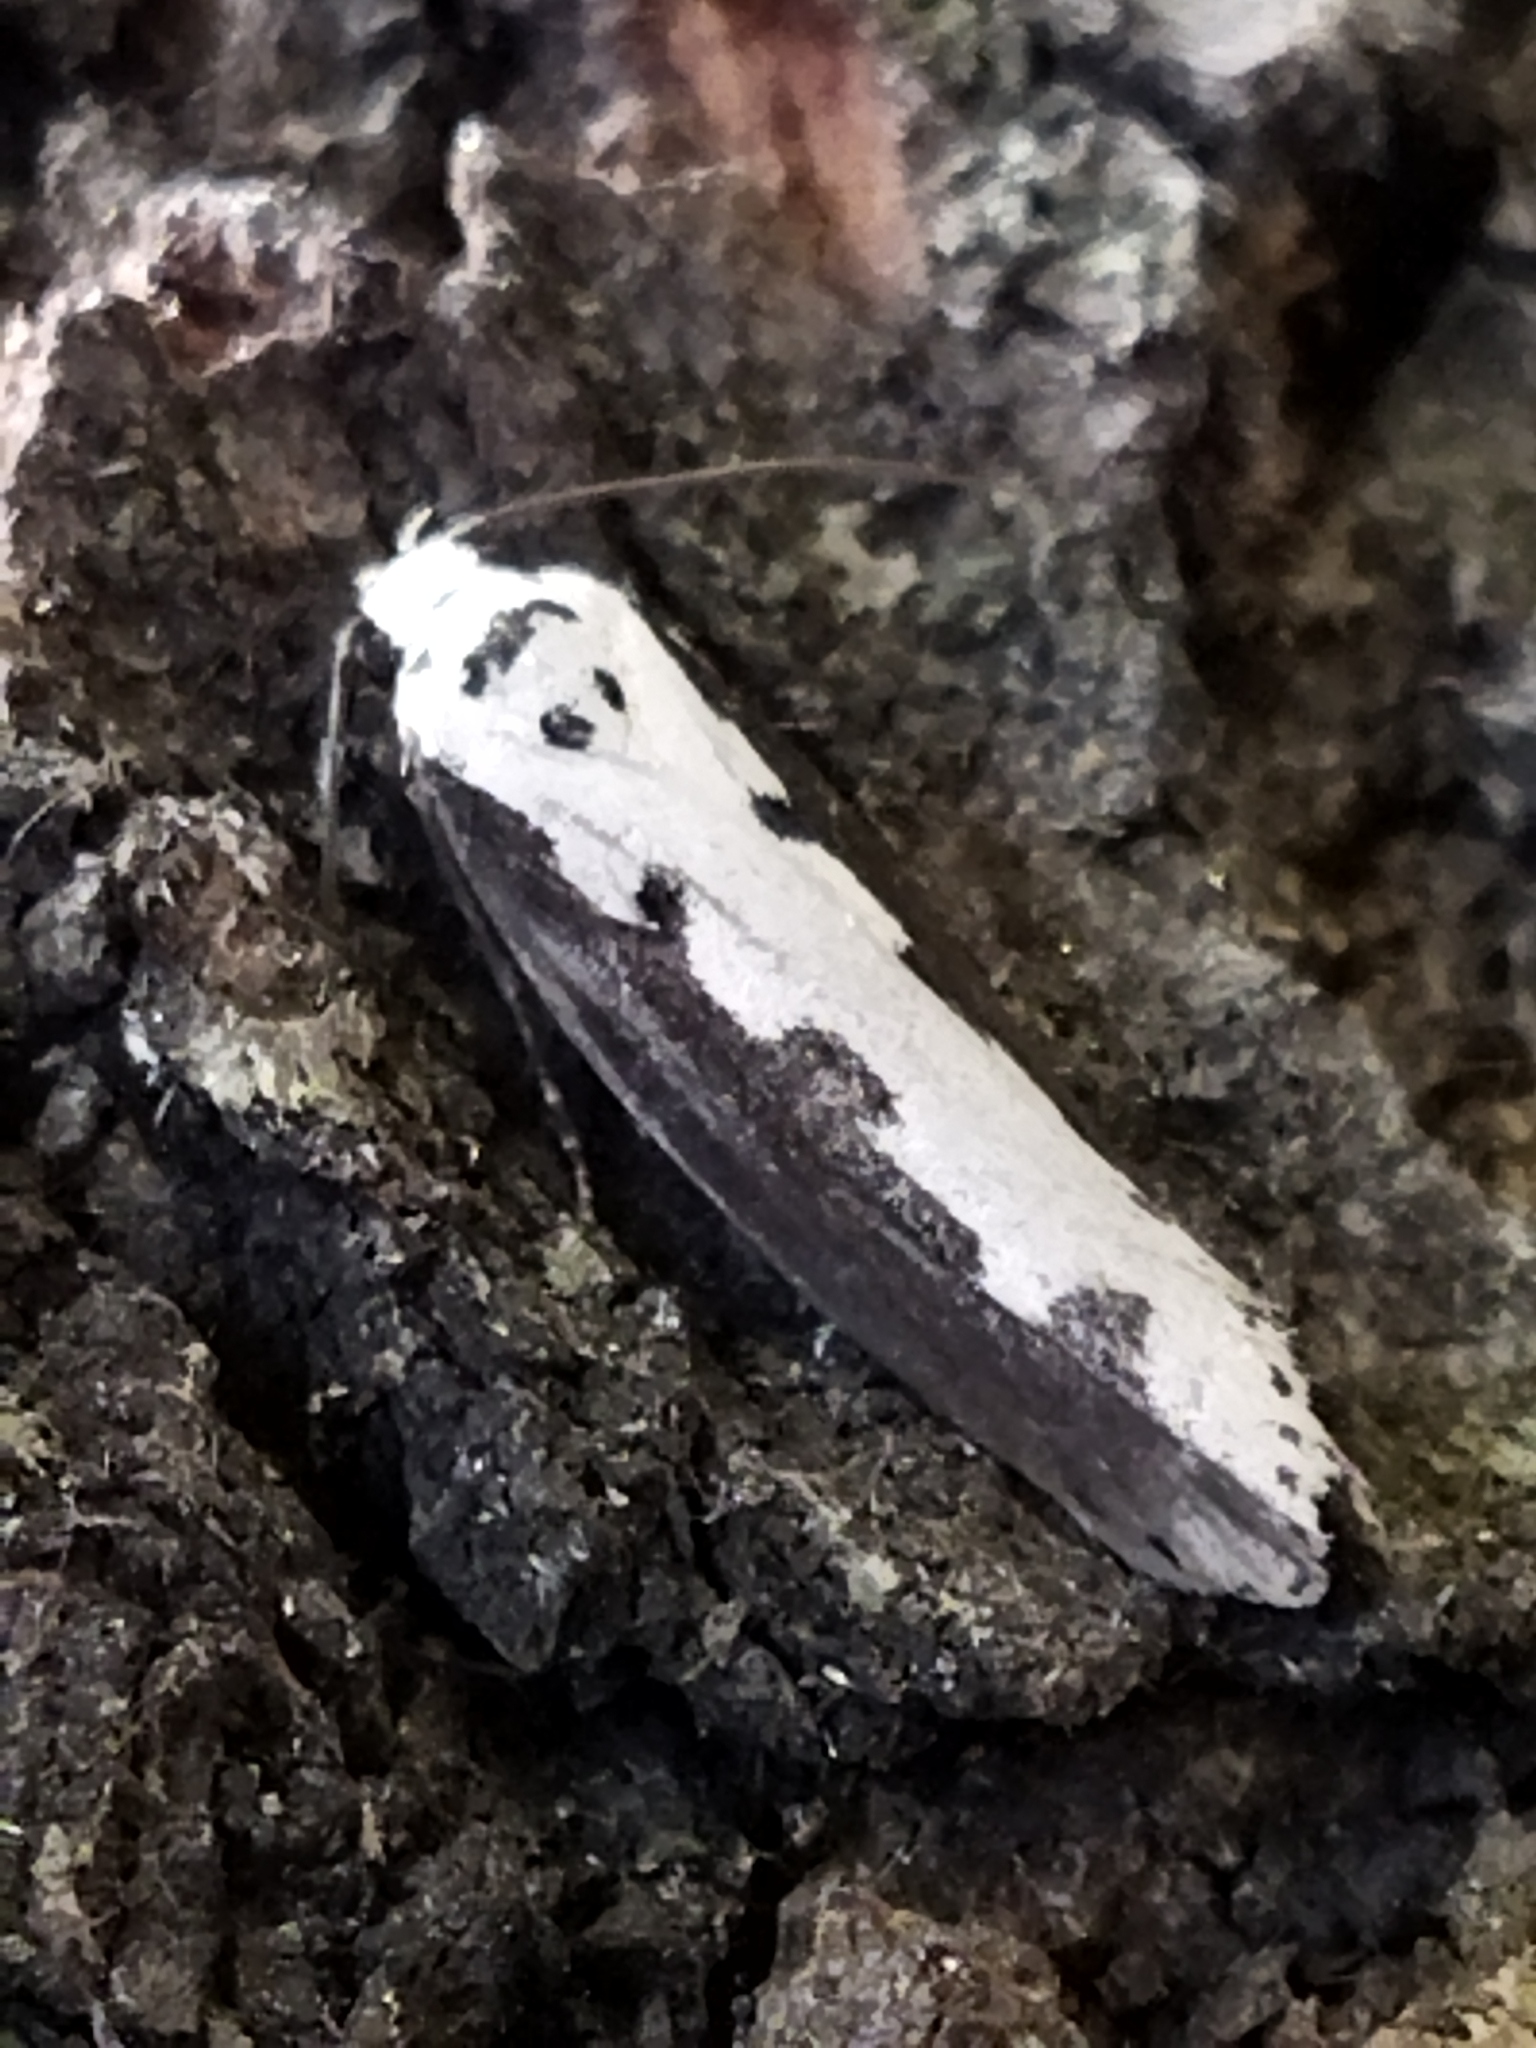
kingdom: Animalia
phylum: Arthropoda
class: Insecta
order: Lepidoptera
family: Ethmiidae
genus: Ethmia
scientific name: Ethmia bipunctella
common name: Bordered ermel
